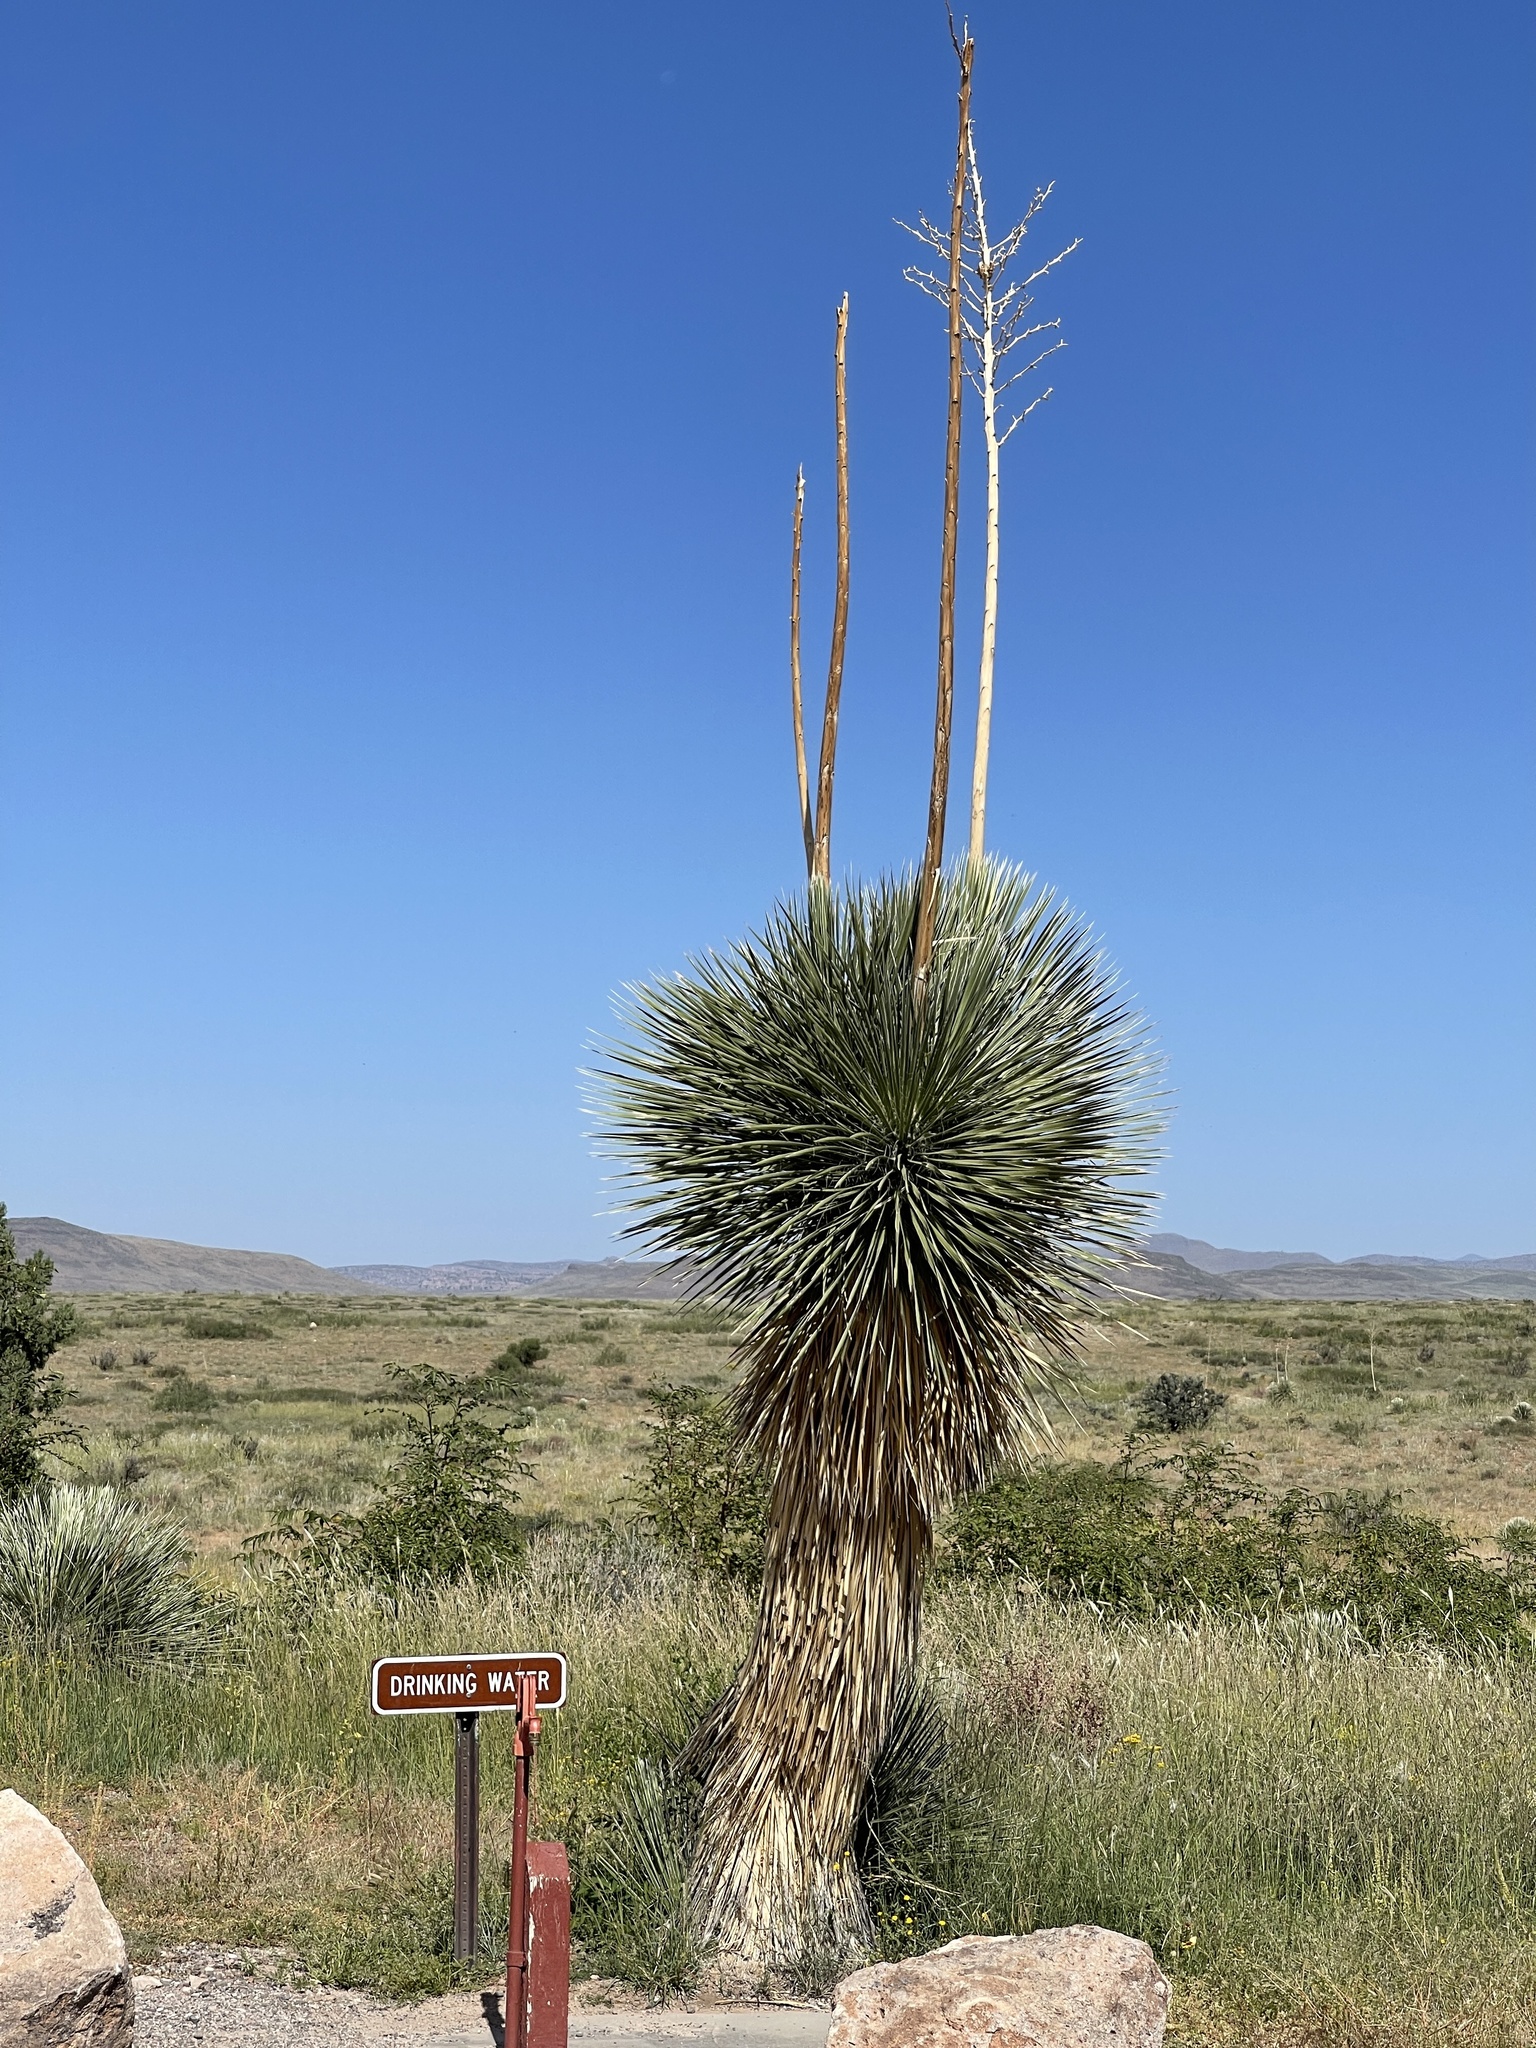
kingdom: Plantae
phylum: Tracheophyta
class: Liliopsida
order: Asparagales
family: Asparagaceae
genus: Yucca
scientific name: Yucca elata
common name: Palmella
